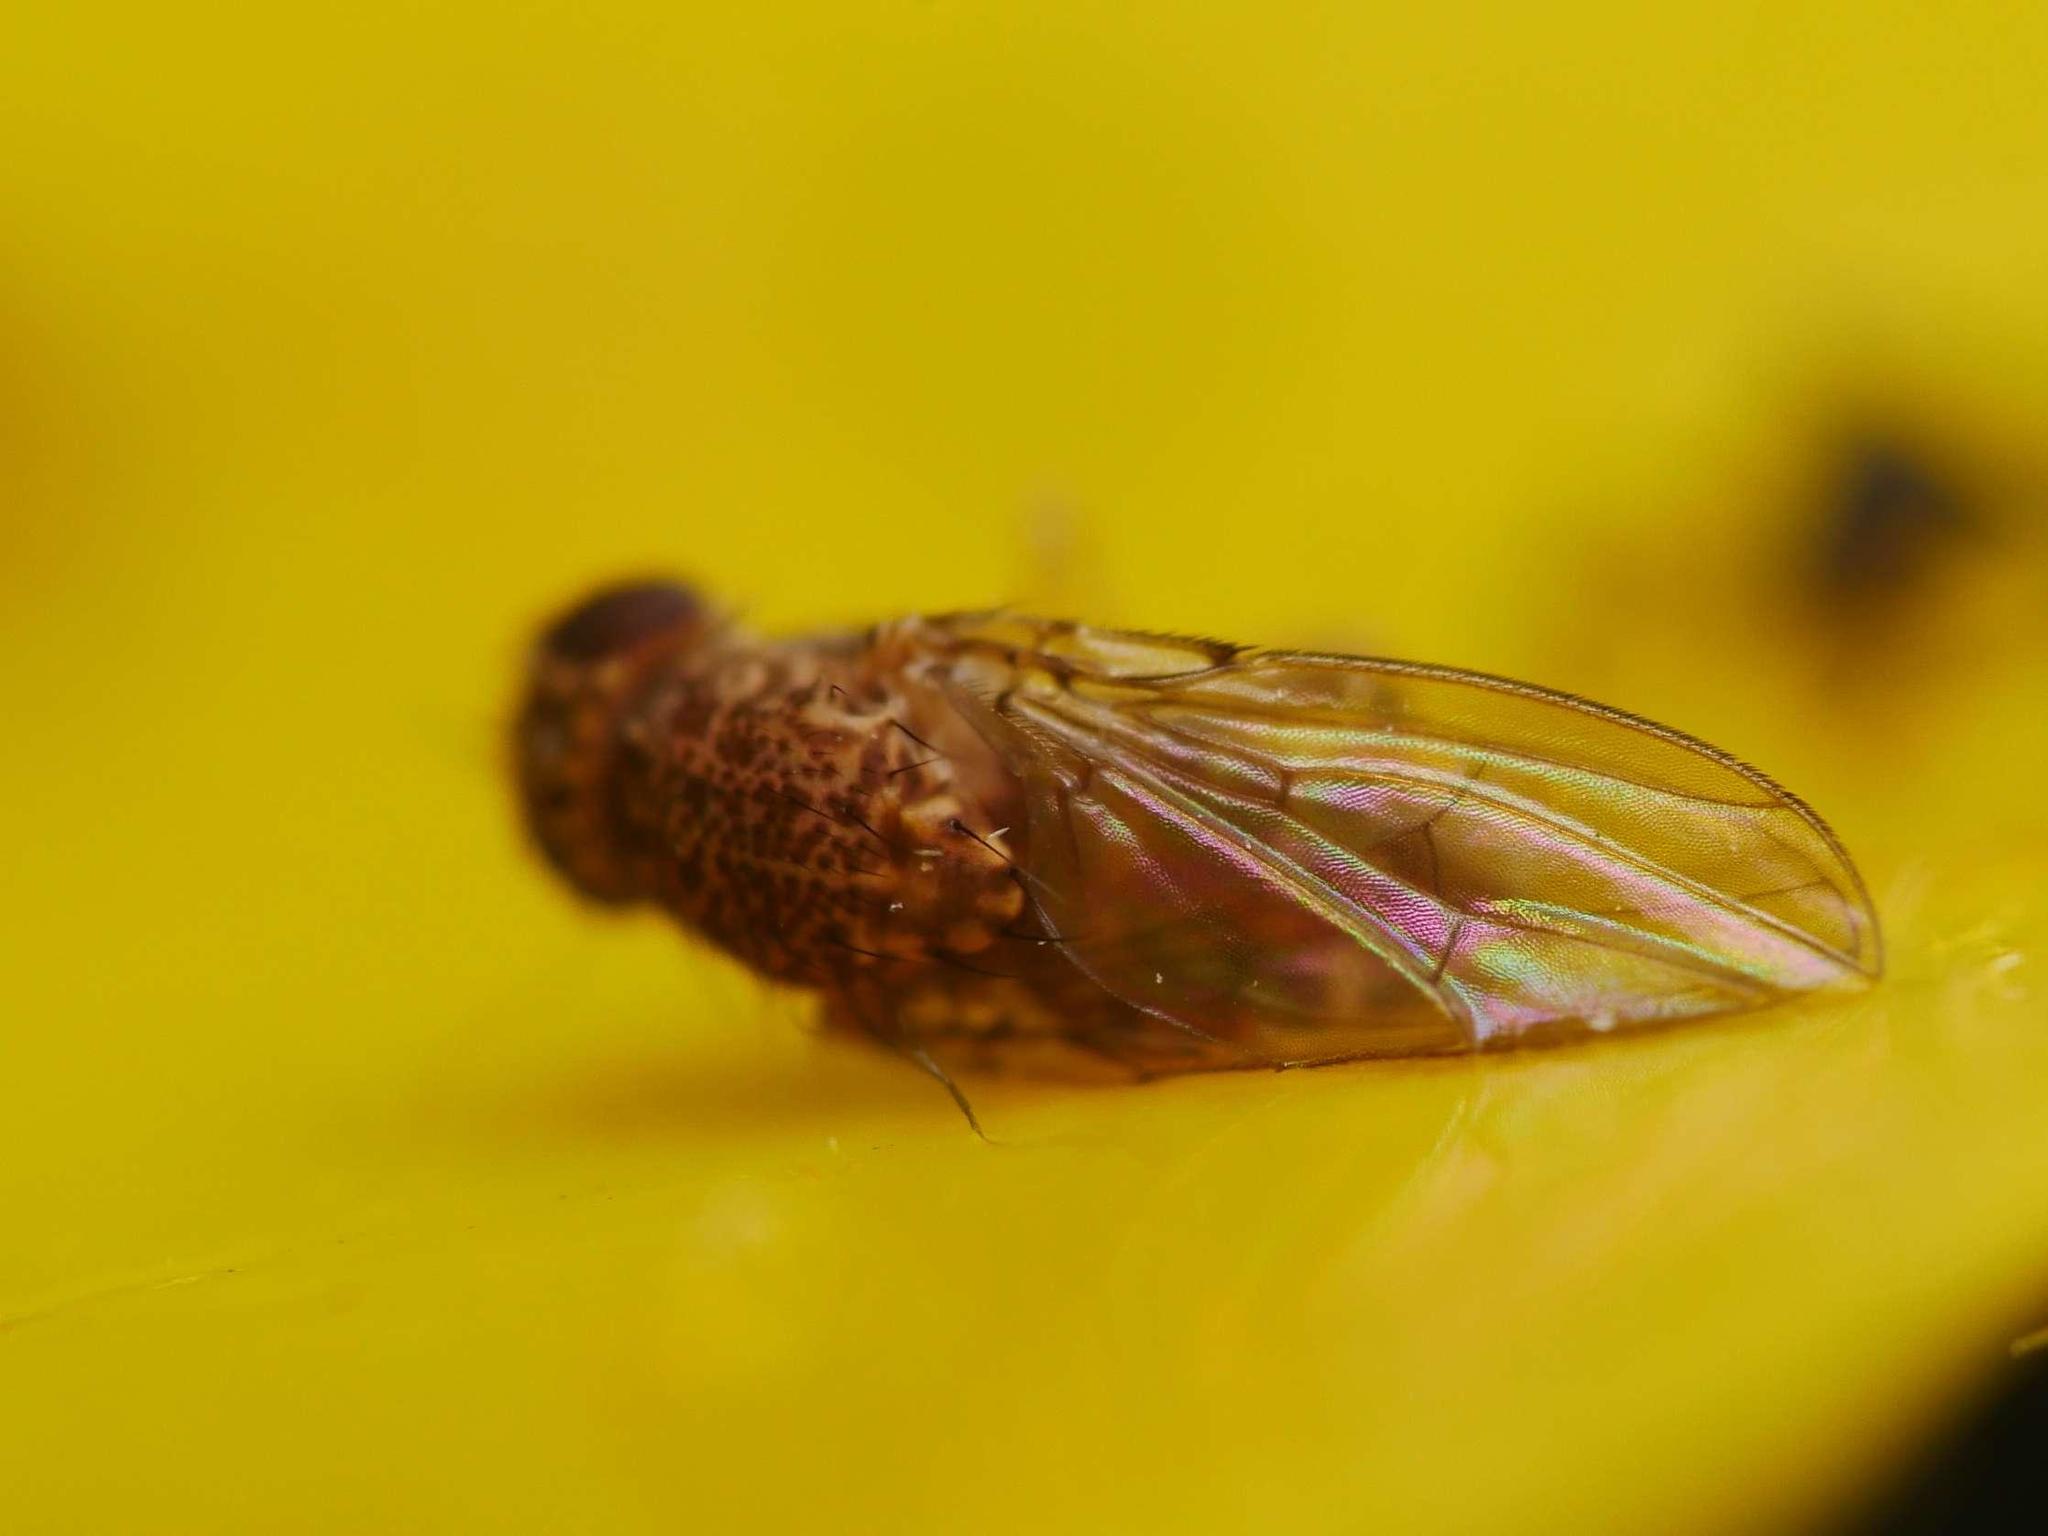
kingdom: Animalia
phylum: Arthropoda
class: Insecta
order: Diptera
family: Drosophilidae
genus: Drosophila
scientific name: Drosophila repleta
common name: Pomace fly
